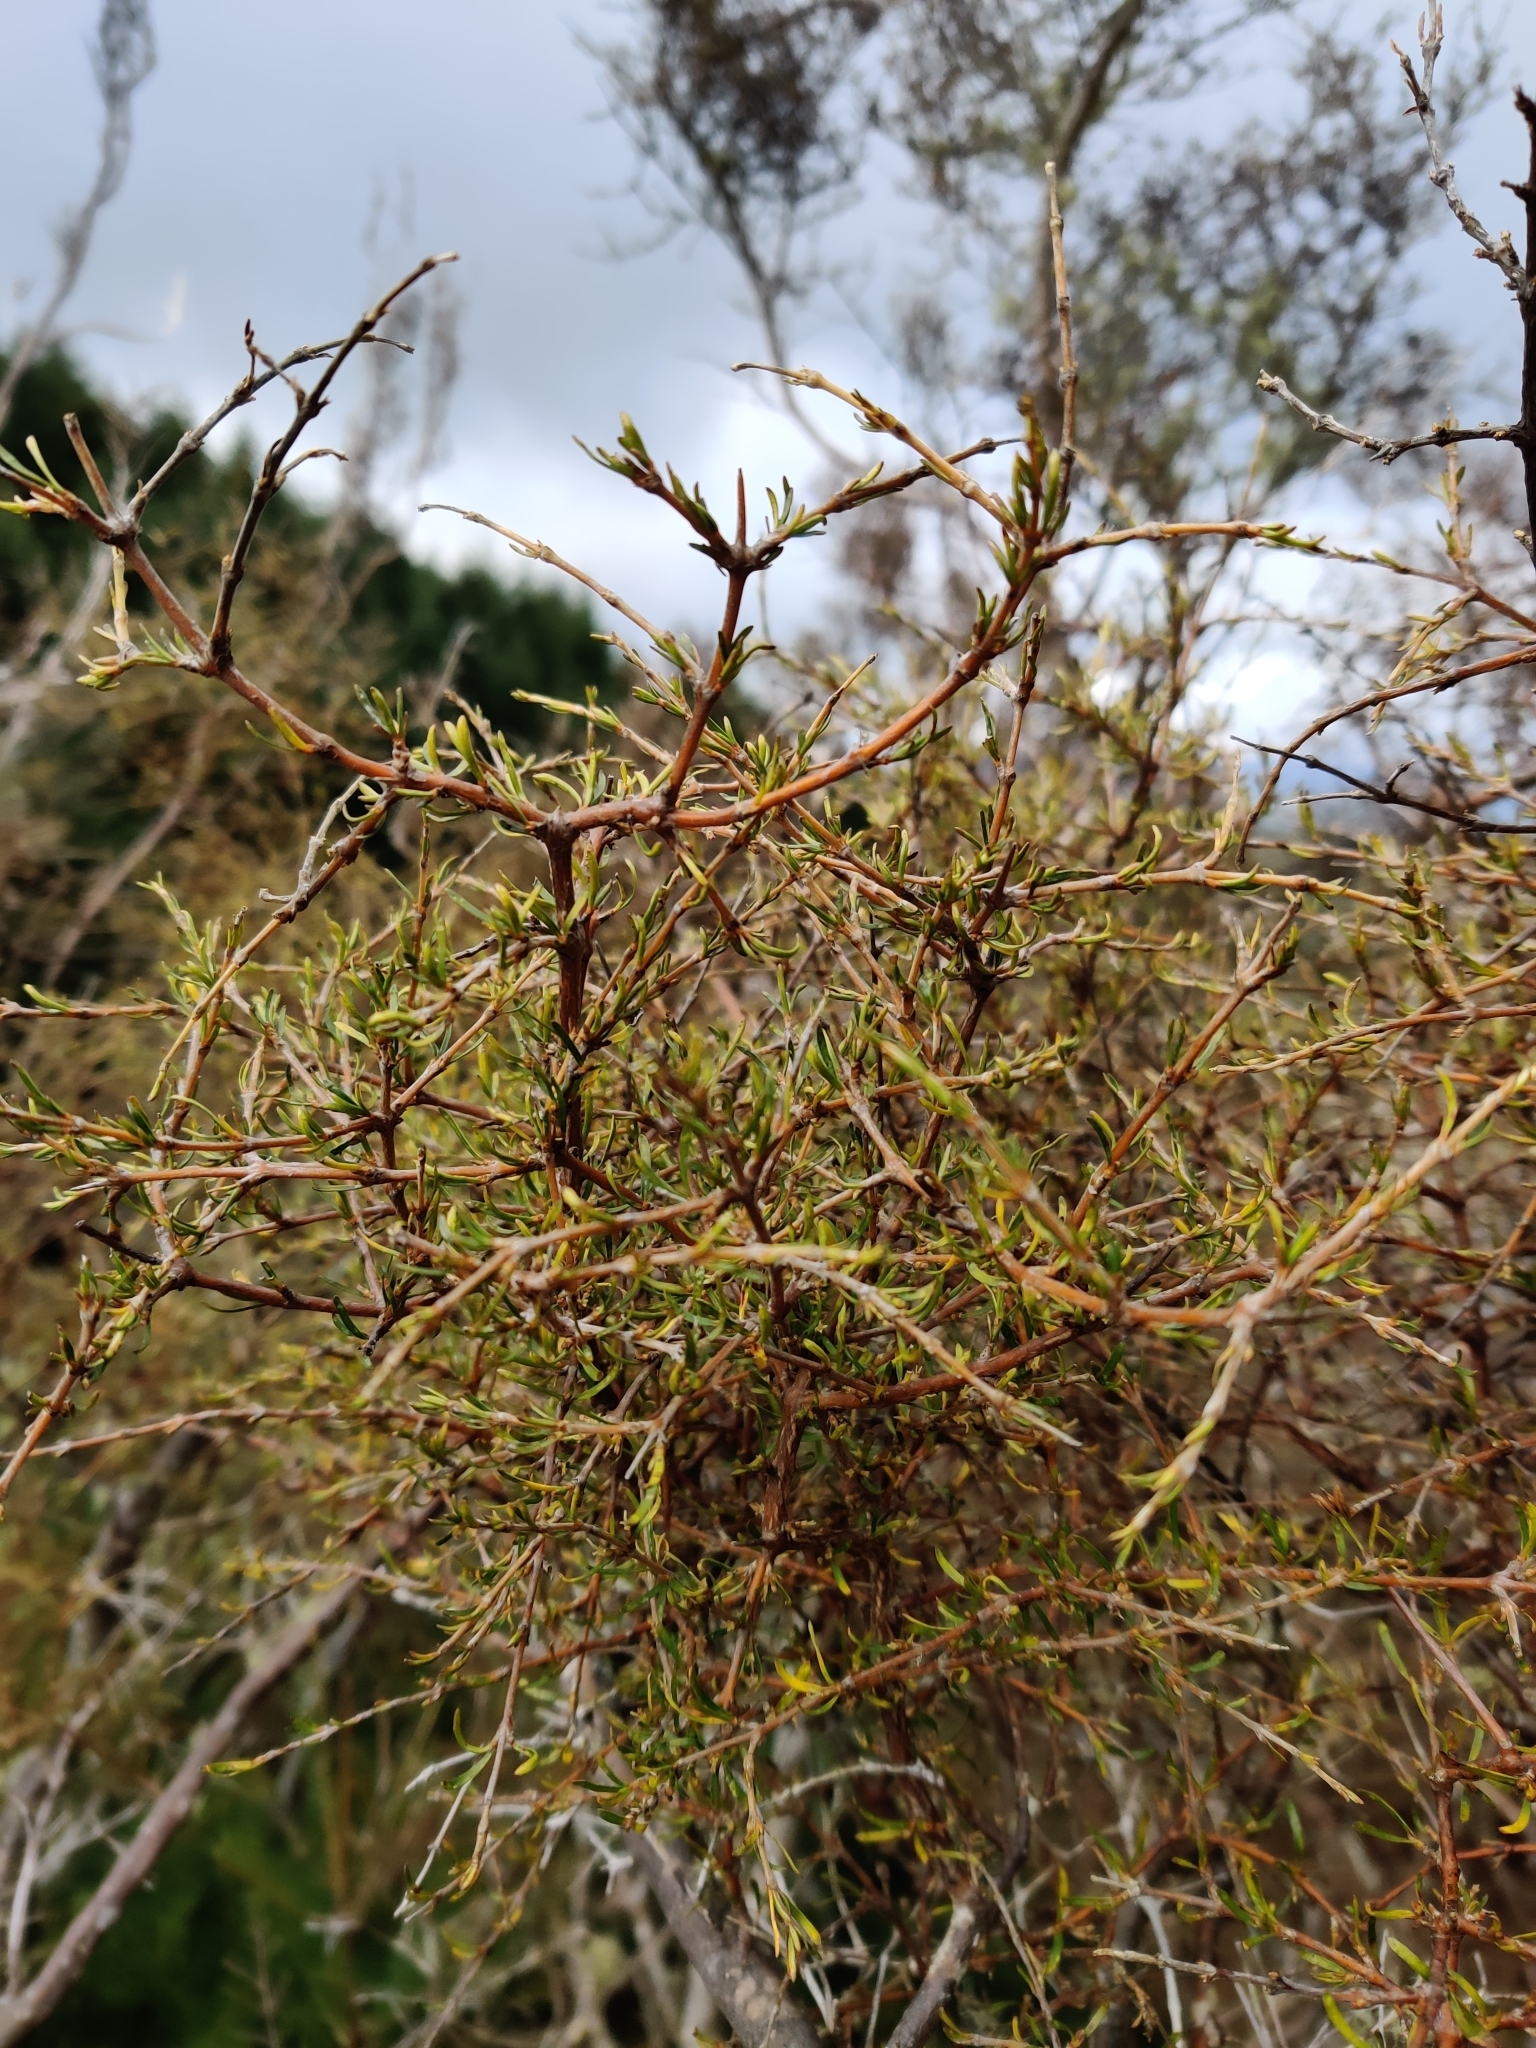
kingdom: Plantae
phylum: Tracheophyta
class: Magnoliopsida
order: Gentianales
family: Rubiaceae
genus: Coprosma
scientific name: Coprosma rugosa
